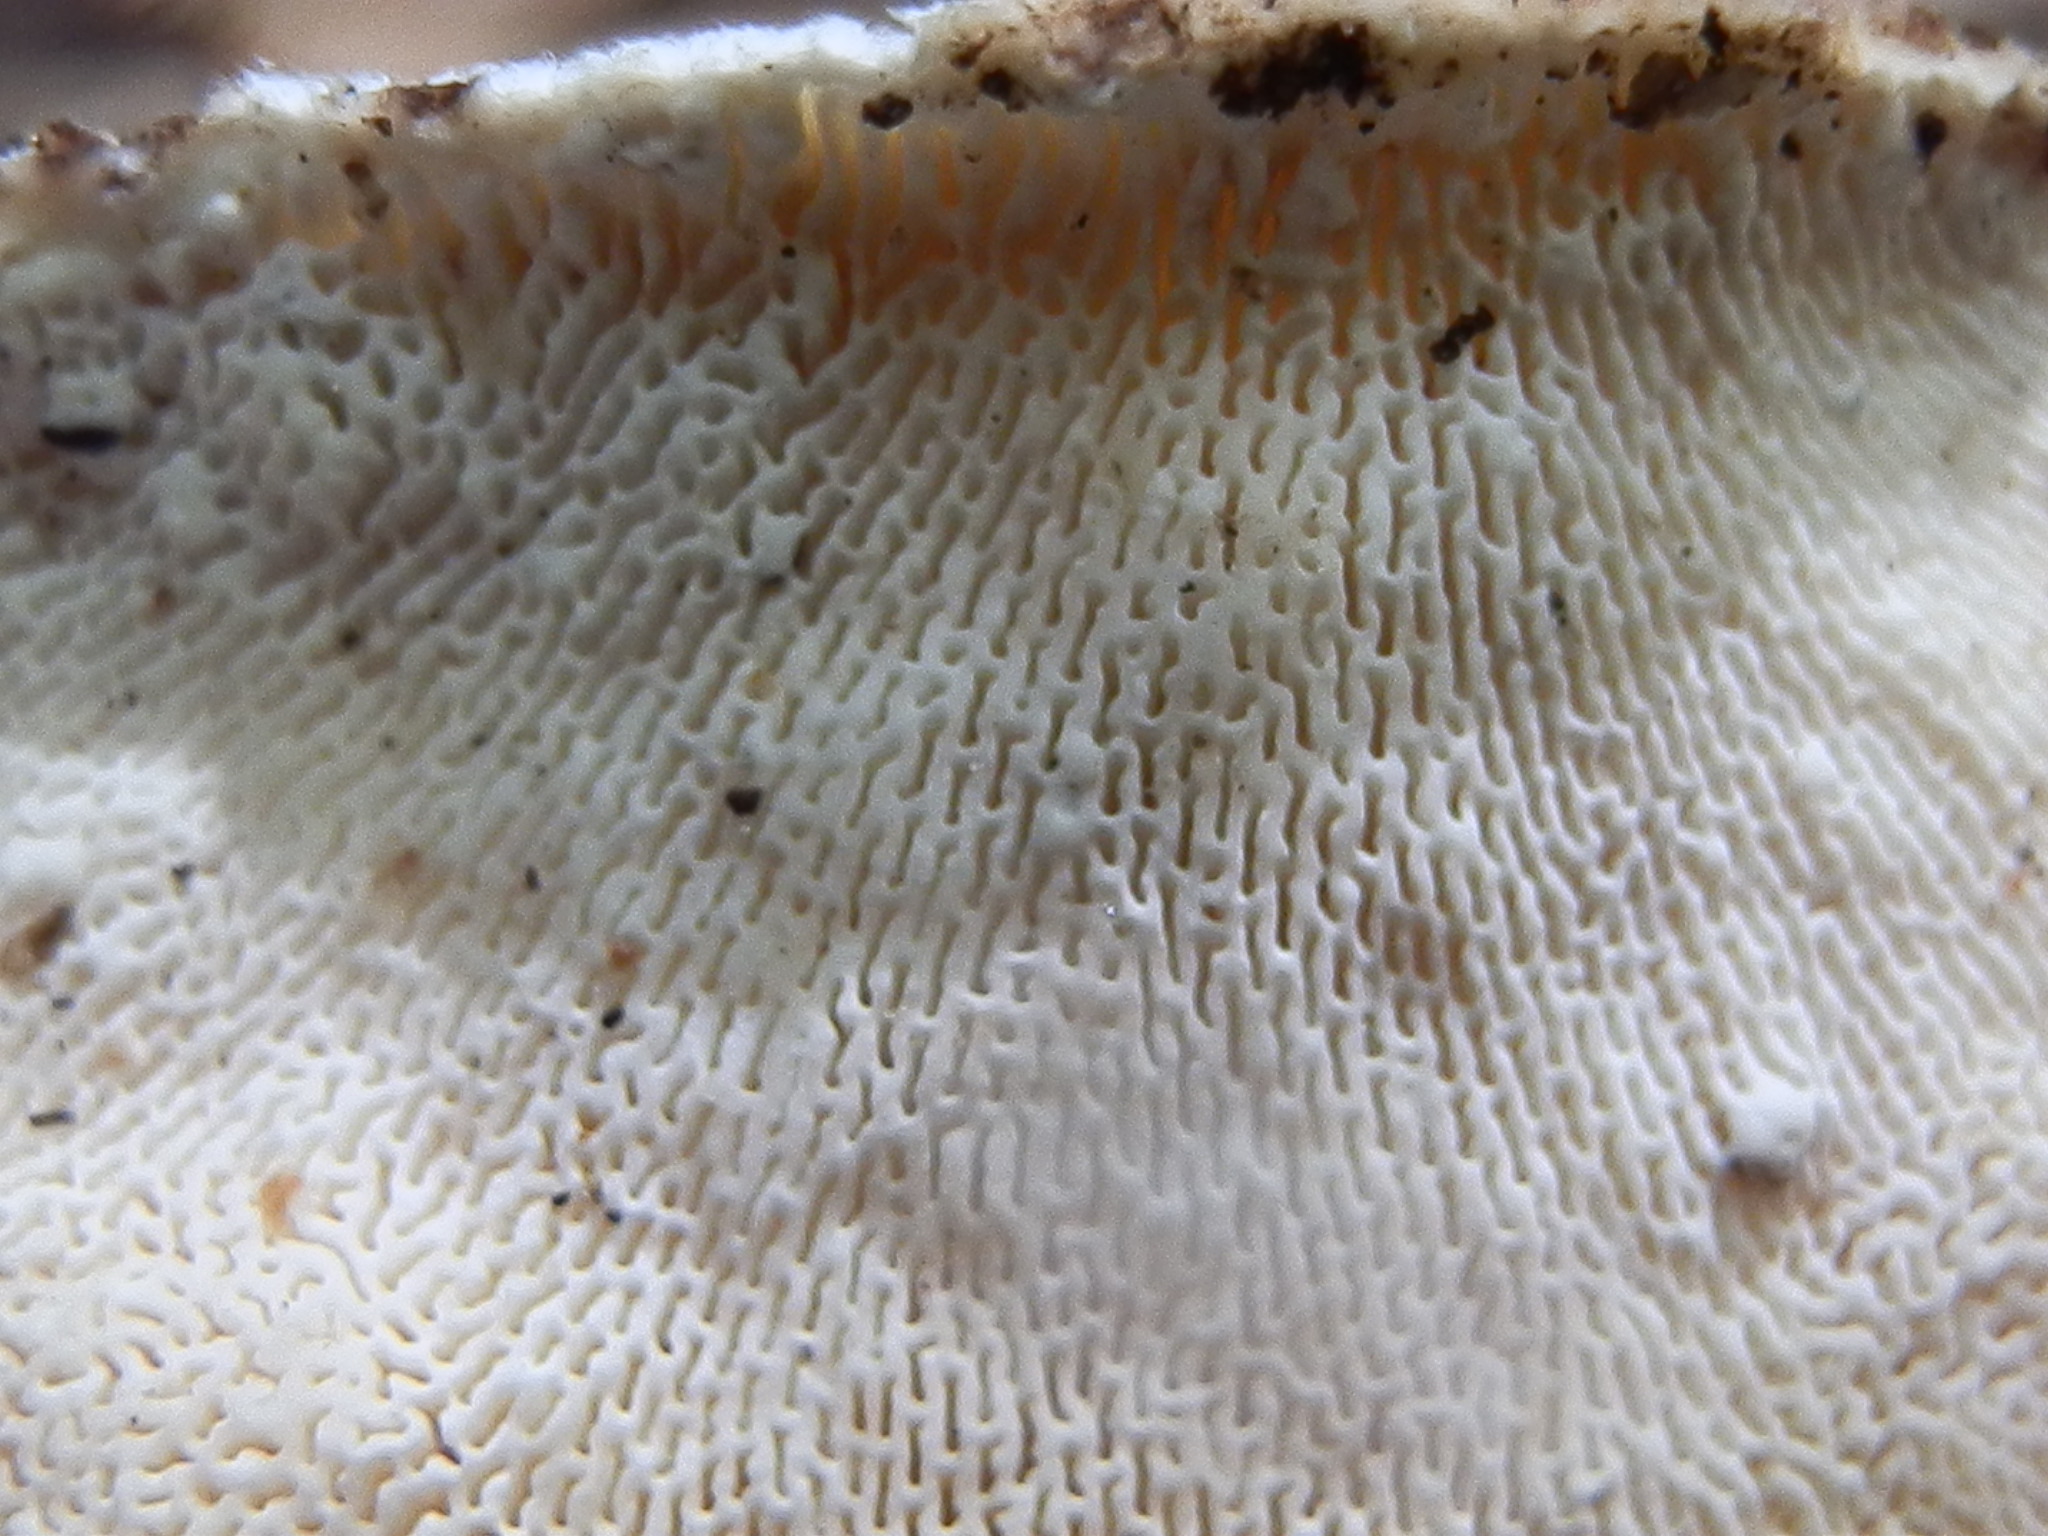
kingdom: Fungi
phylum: Basidiomycota
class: Agaricomycetes
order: Polyporales
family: Polyporaceae
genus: Trametes
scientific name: Trametes gibbosa
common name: Lumpy bracket
